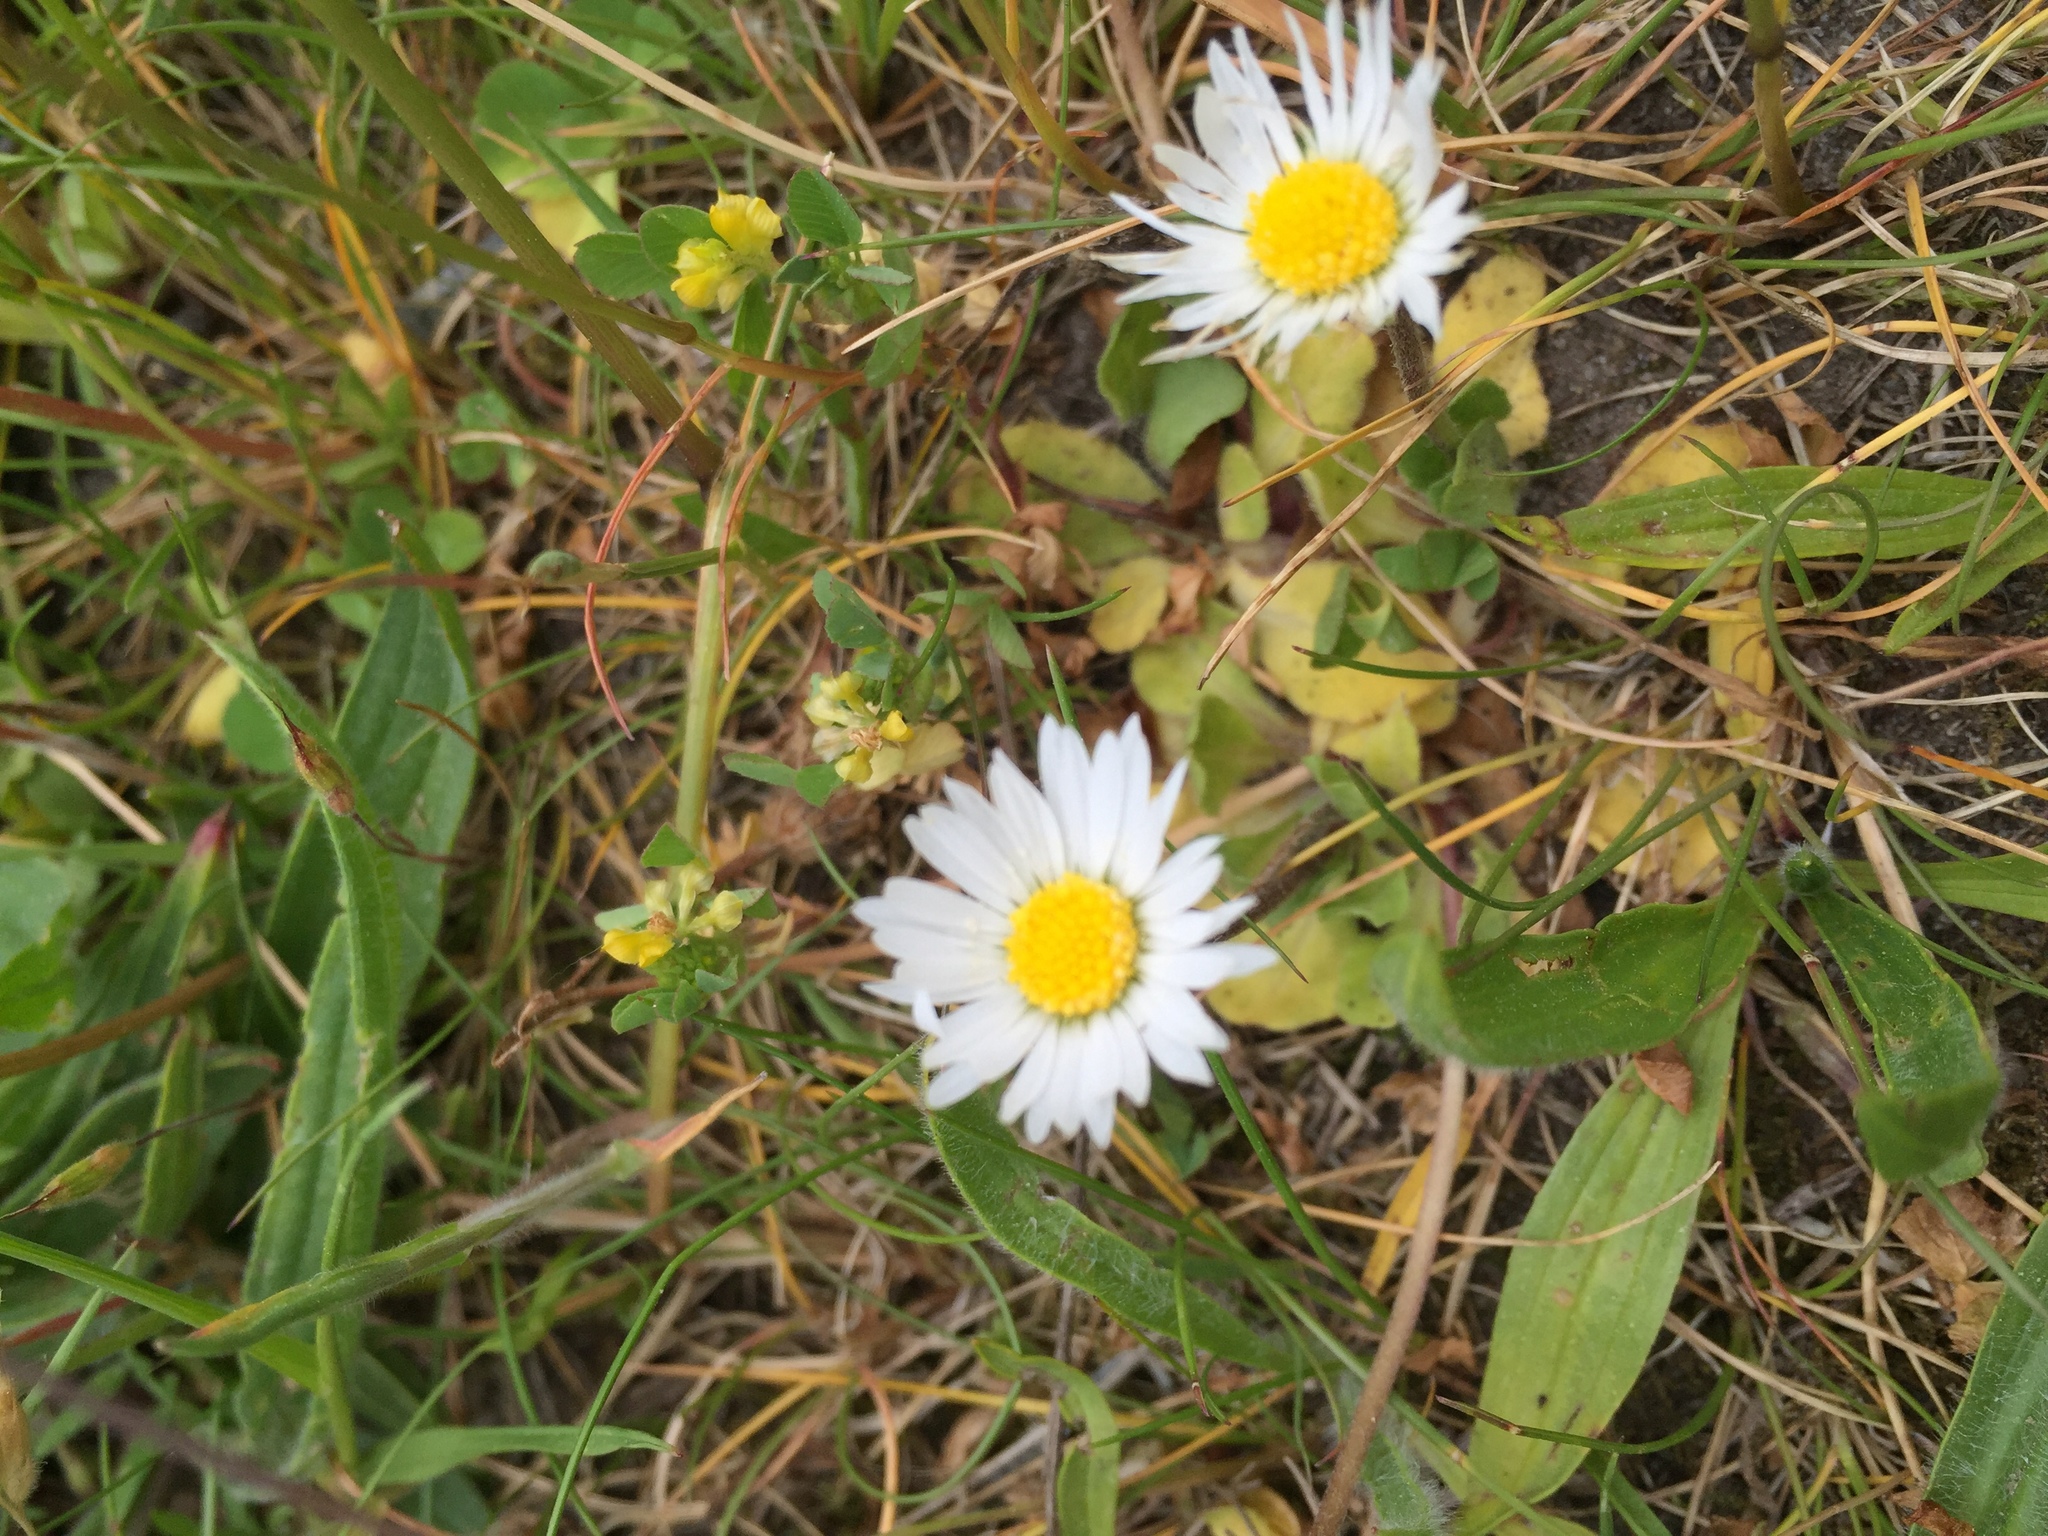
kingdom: Plantae
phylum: Tracheophyta
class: Magnoliopsida
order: Asterales
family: Asteraceae
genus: Bellis
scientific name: Bellis perennis
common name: Lawndaisy
